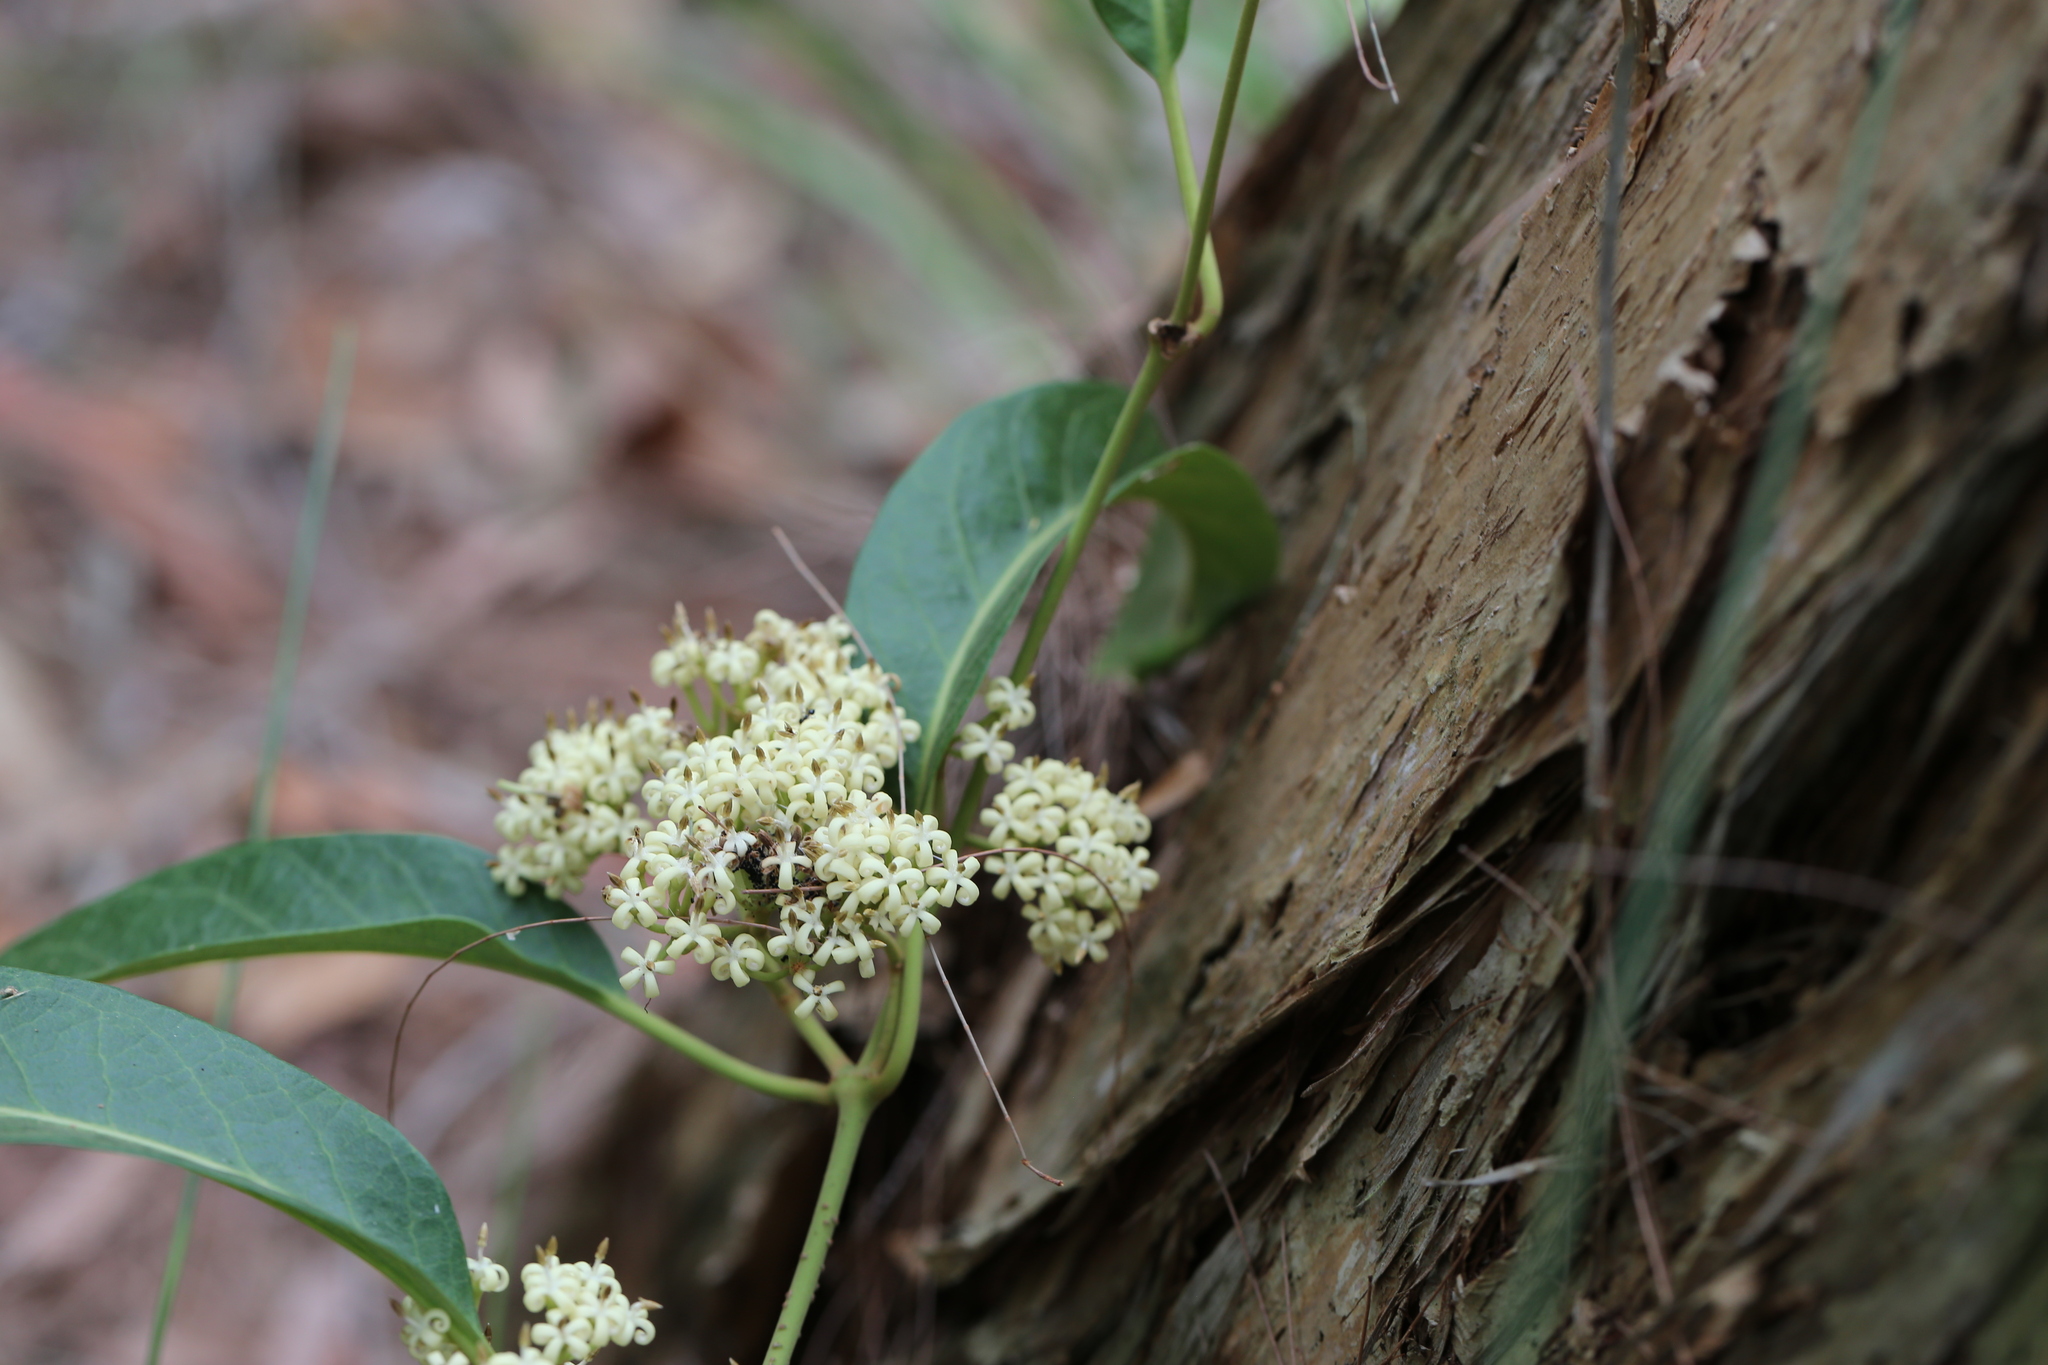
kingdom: Plantae
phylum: Tracheophyta
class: Magnoliopsida
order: Gentianales
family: Apocynaceae
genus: Parsonsia
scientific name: Parsonsia brisbanensis
